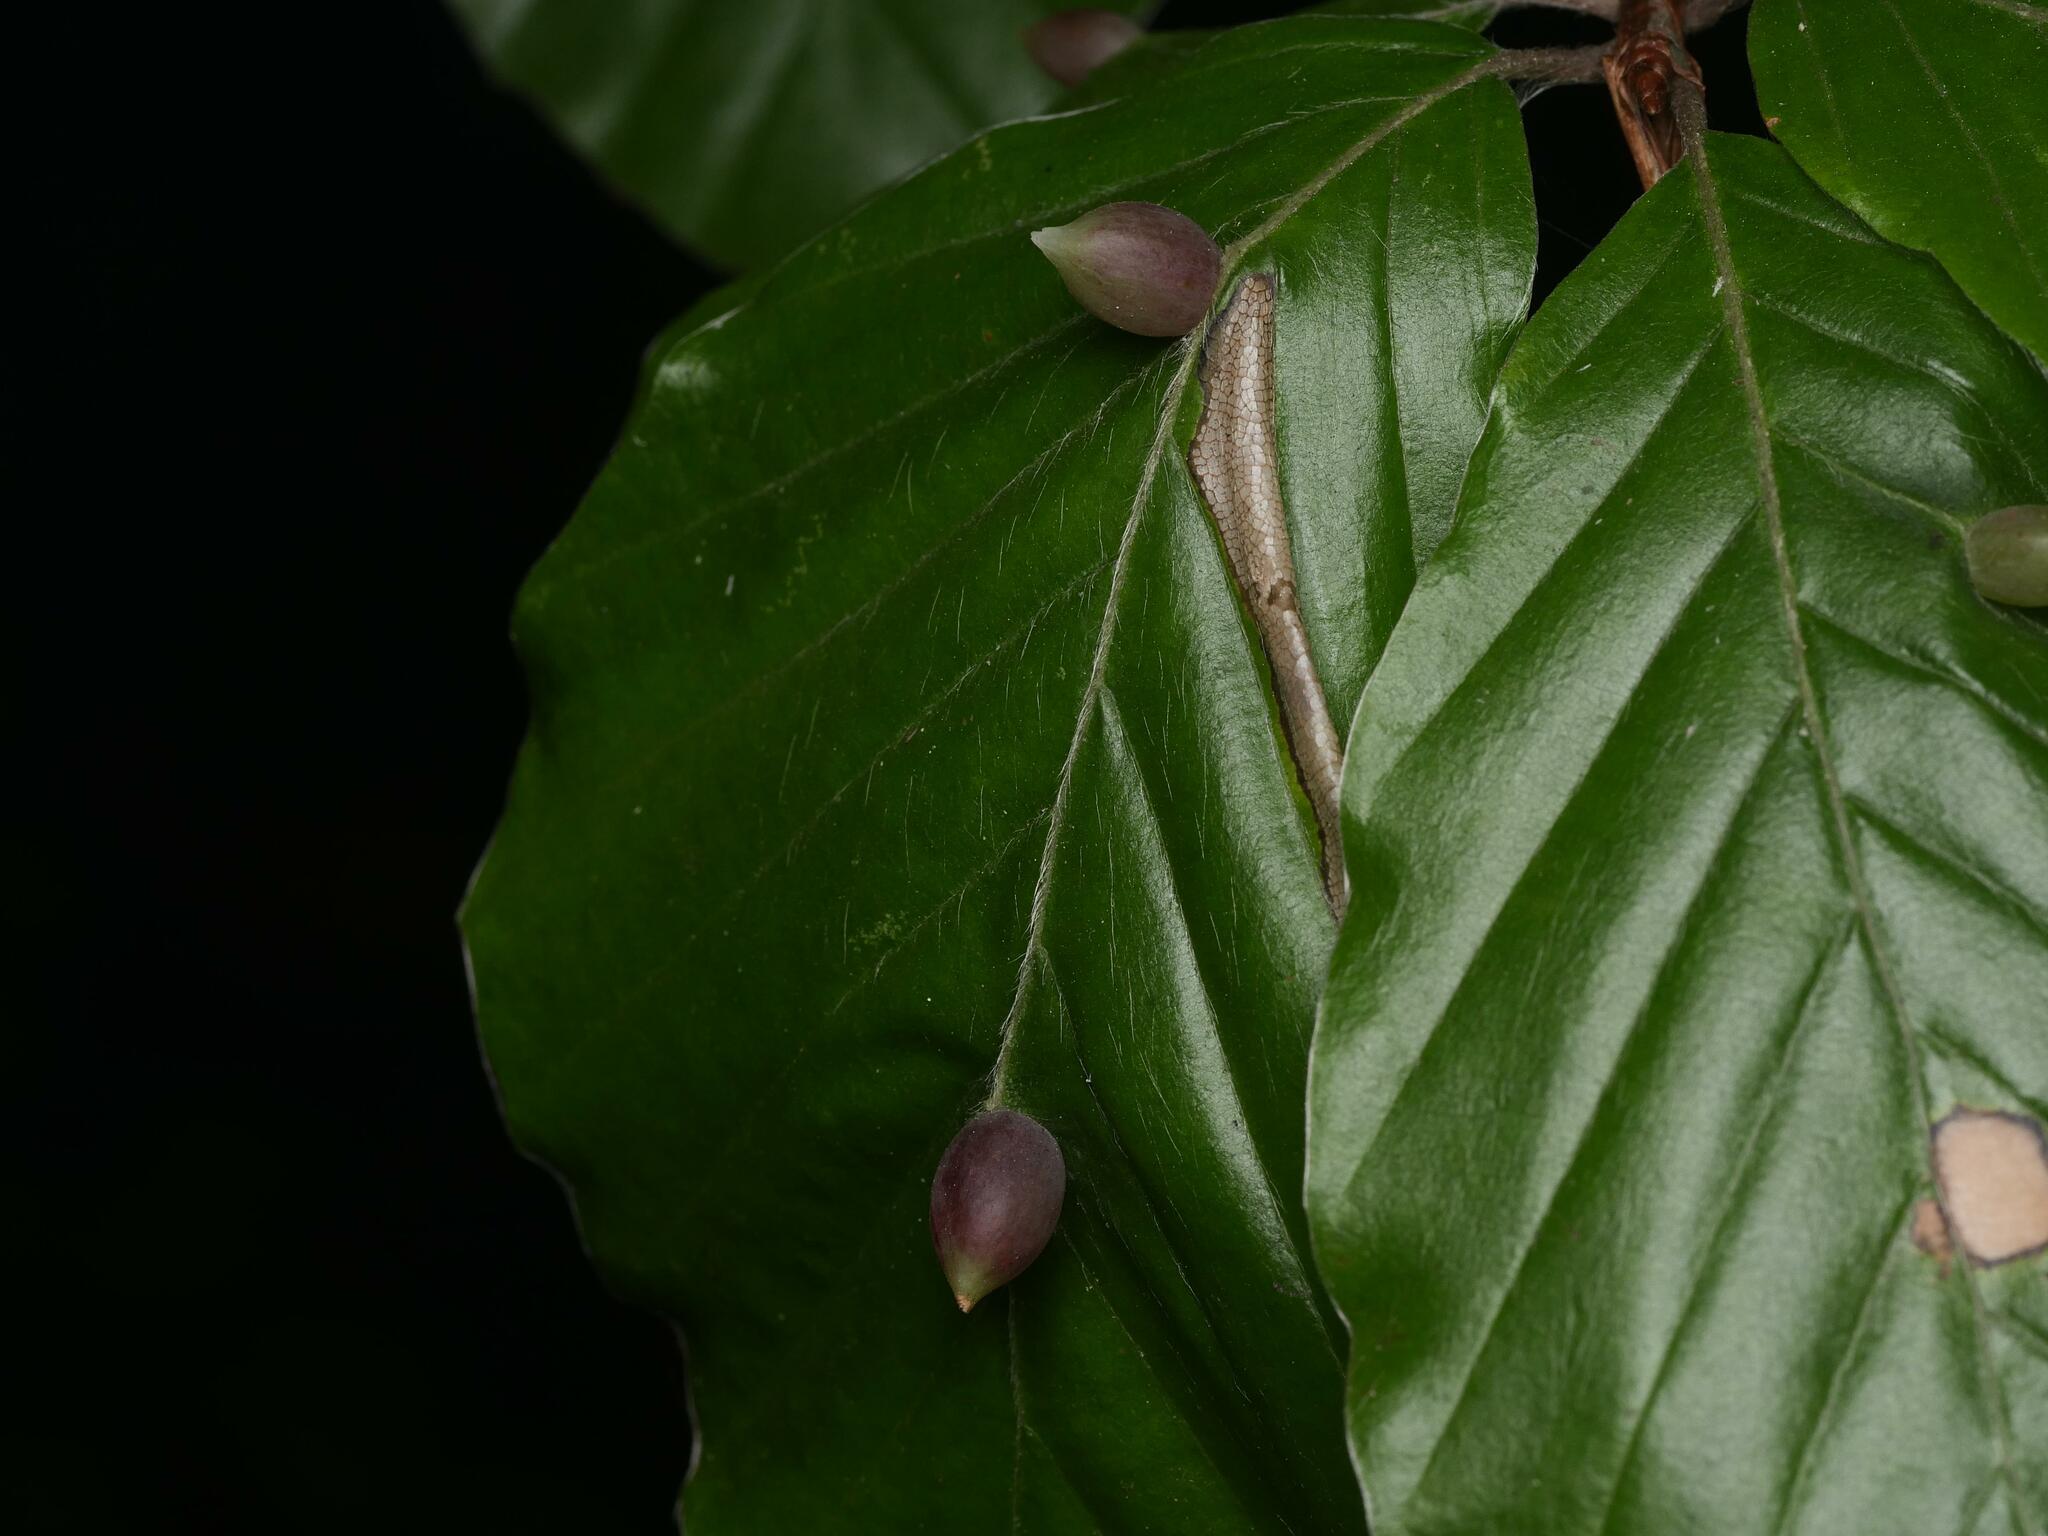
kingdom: Animalia
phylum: Arthropoda
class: Insecta
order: Diptera
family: Cecidomyiidae
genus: Mikiola
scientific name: Mikiola fagi
